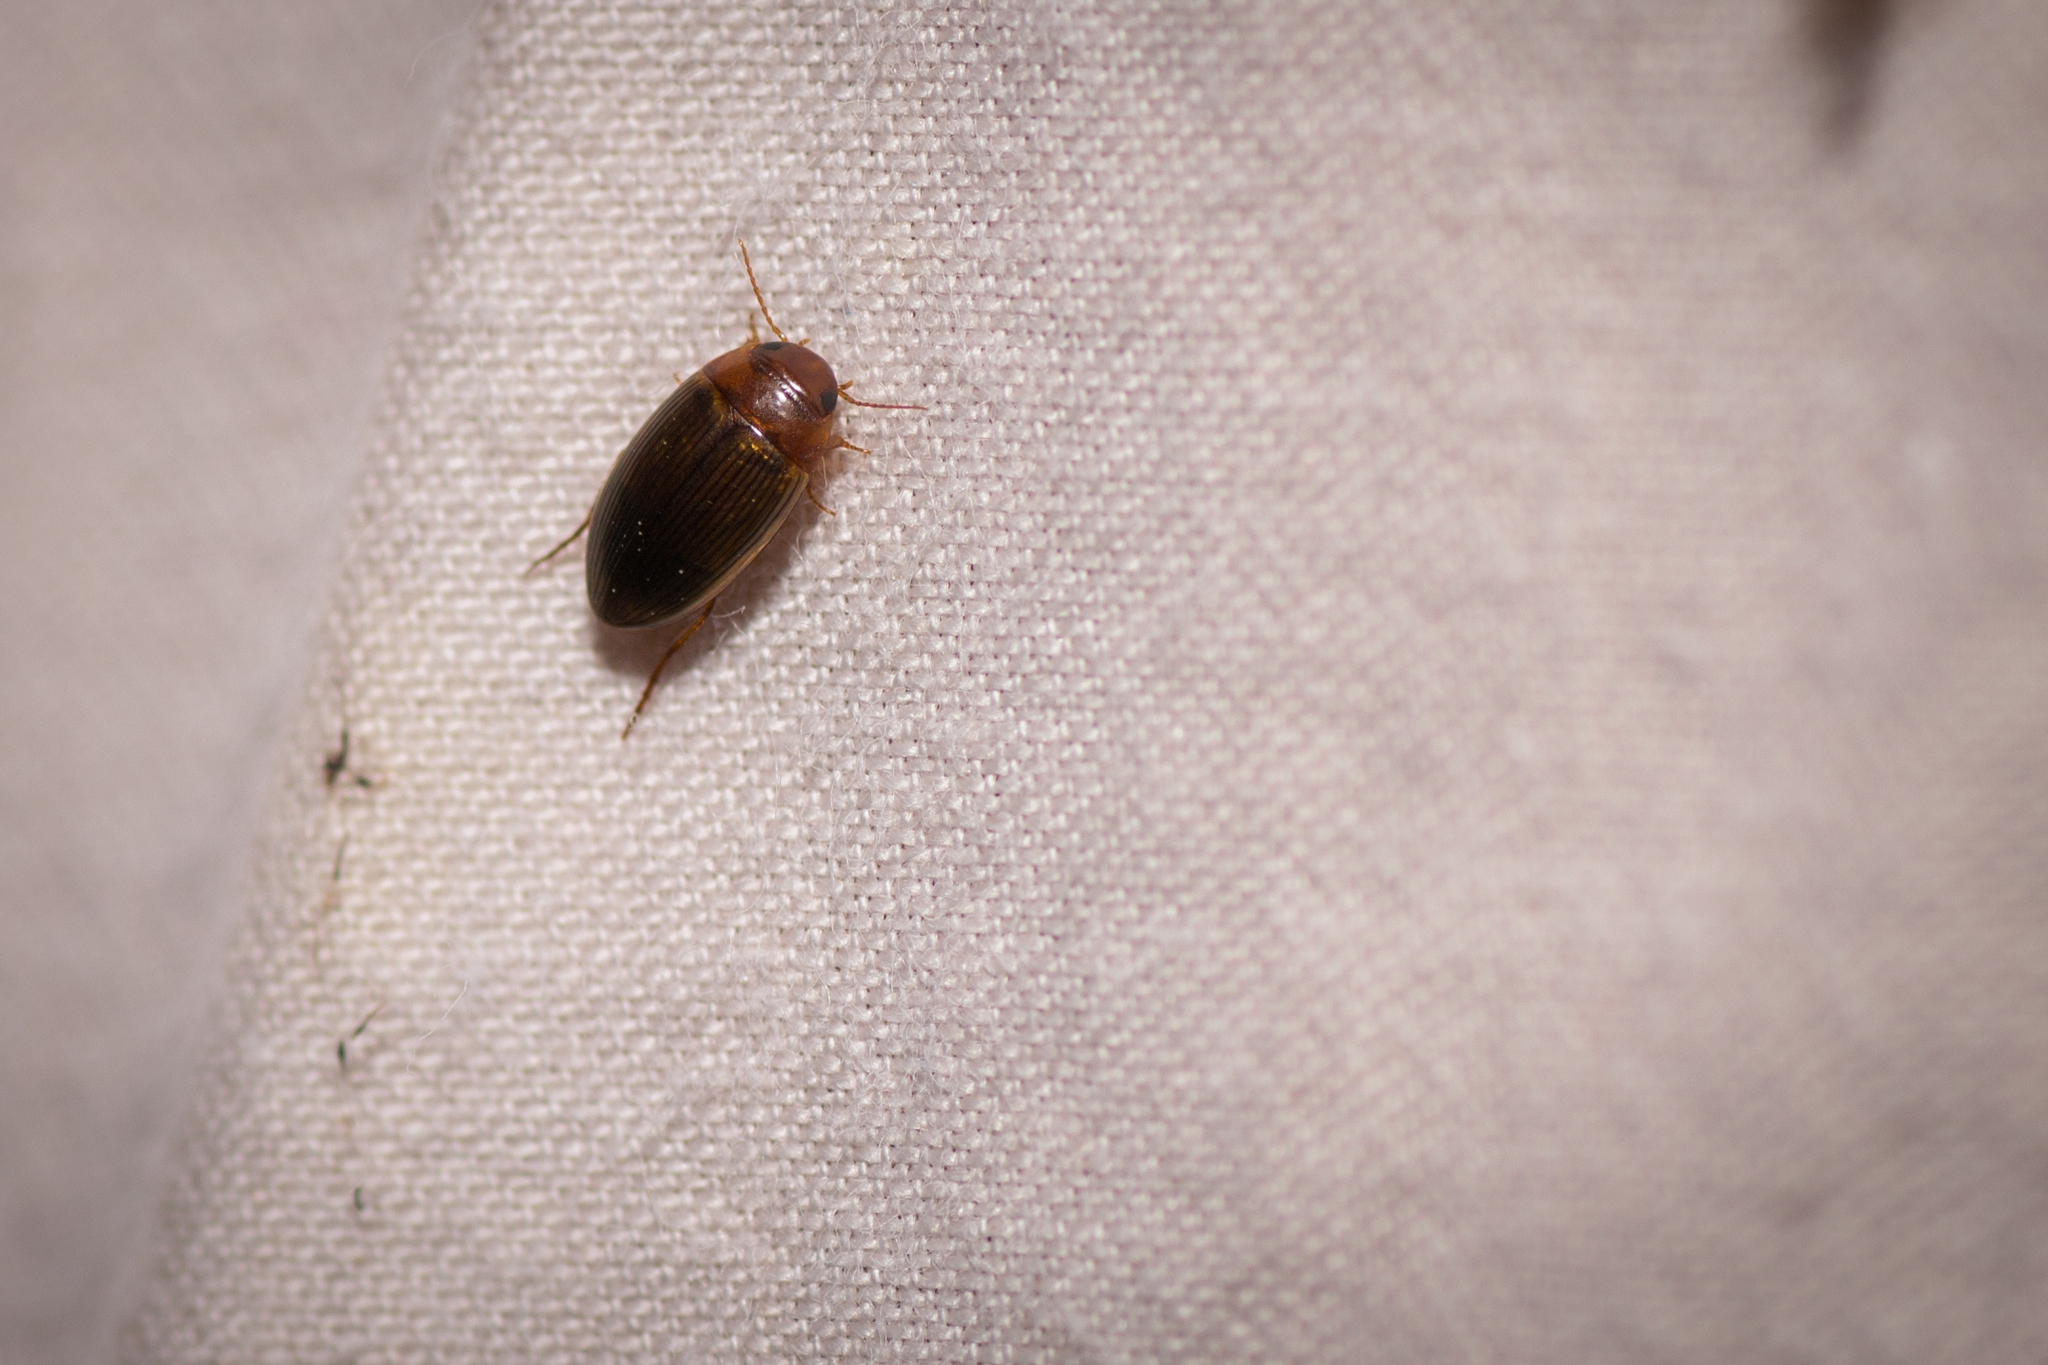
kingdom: Animalia
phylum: Arthropoda
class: Insecta
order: Coleoptera
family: Dytiscidae
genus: Copelatus
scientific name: Copelatus glyphicus
